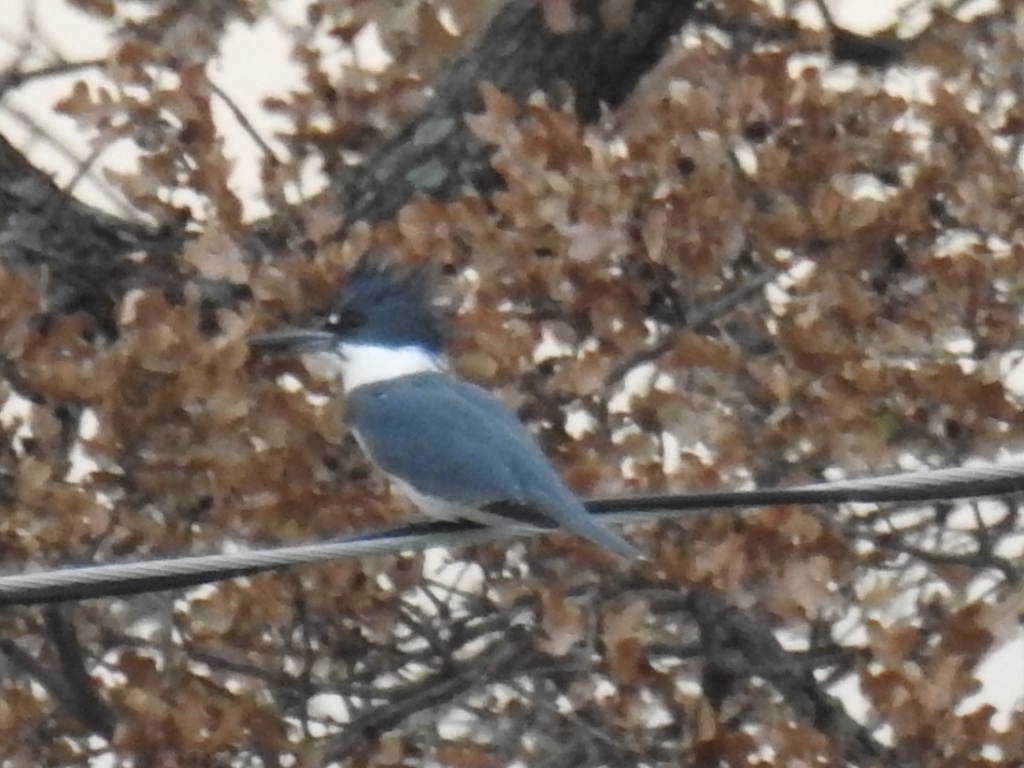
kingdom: Animalia
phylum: Chordata
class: Aves
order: Coraciiformes
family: Alcedinidae
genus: Megaceryle
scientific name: Megaceryle alcyon
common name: Belted kingfisher
